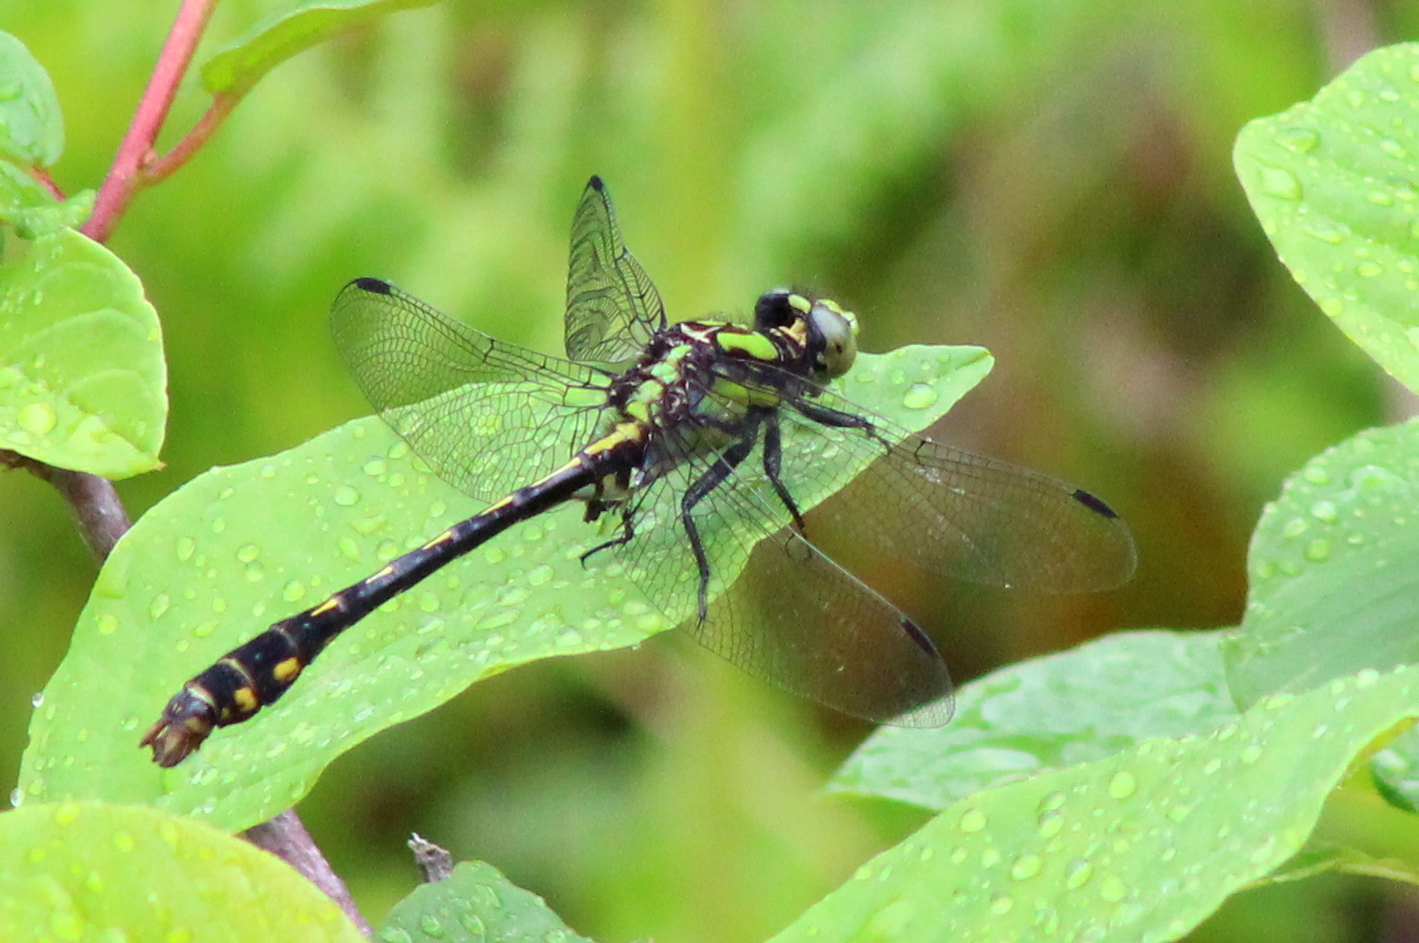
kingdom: Animalia
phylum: Arthropoda
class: Insecta
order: Odonata
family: Gomphidae
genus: Ophiogomphus
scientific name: Ophiogomphus mainensis
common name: Maine snaketail
